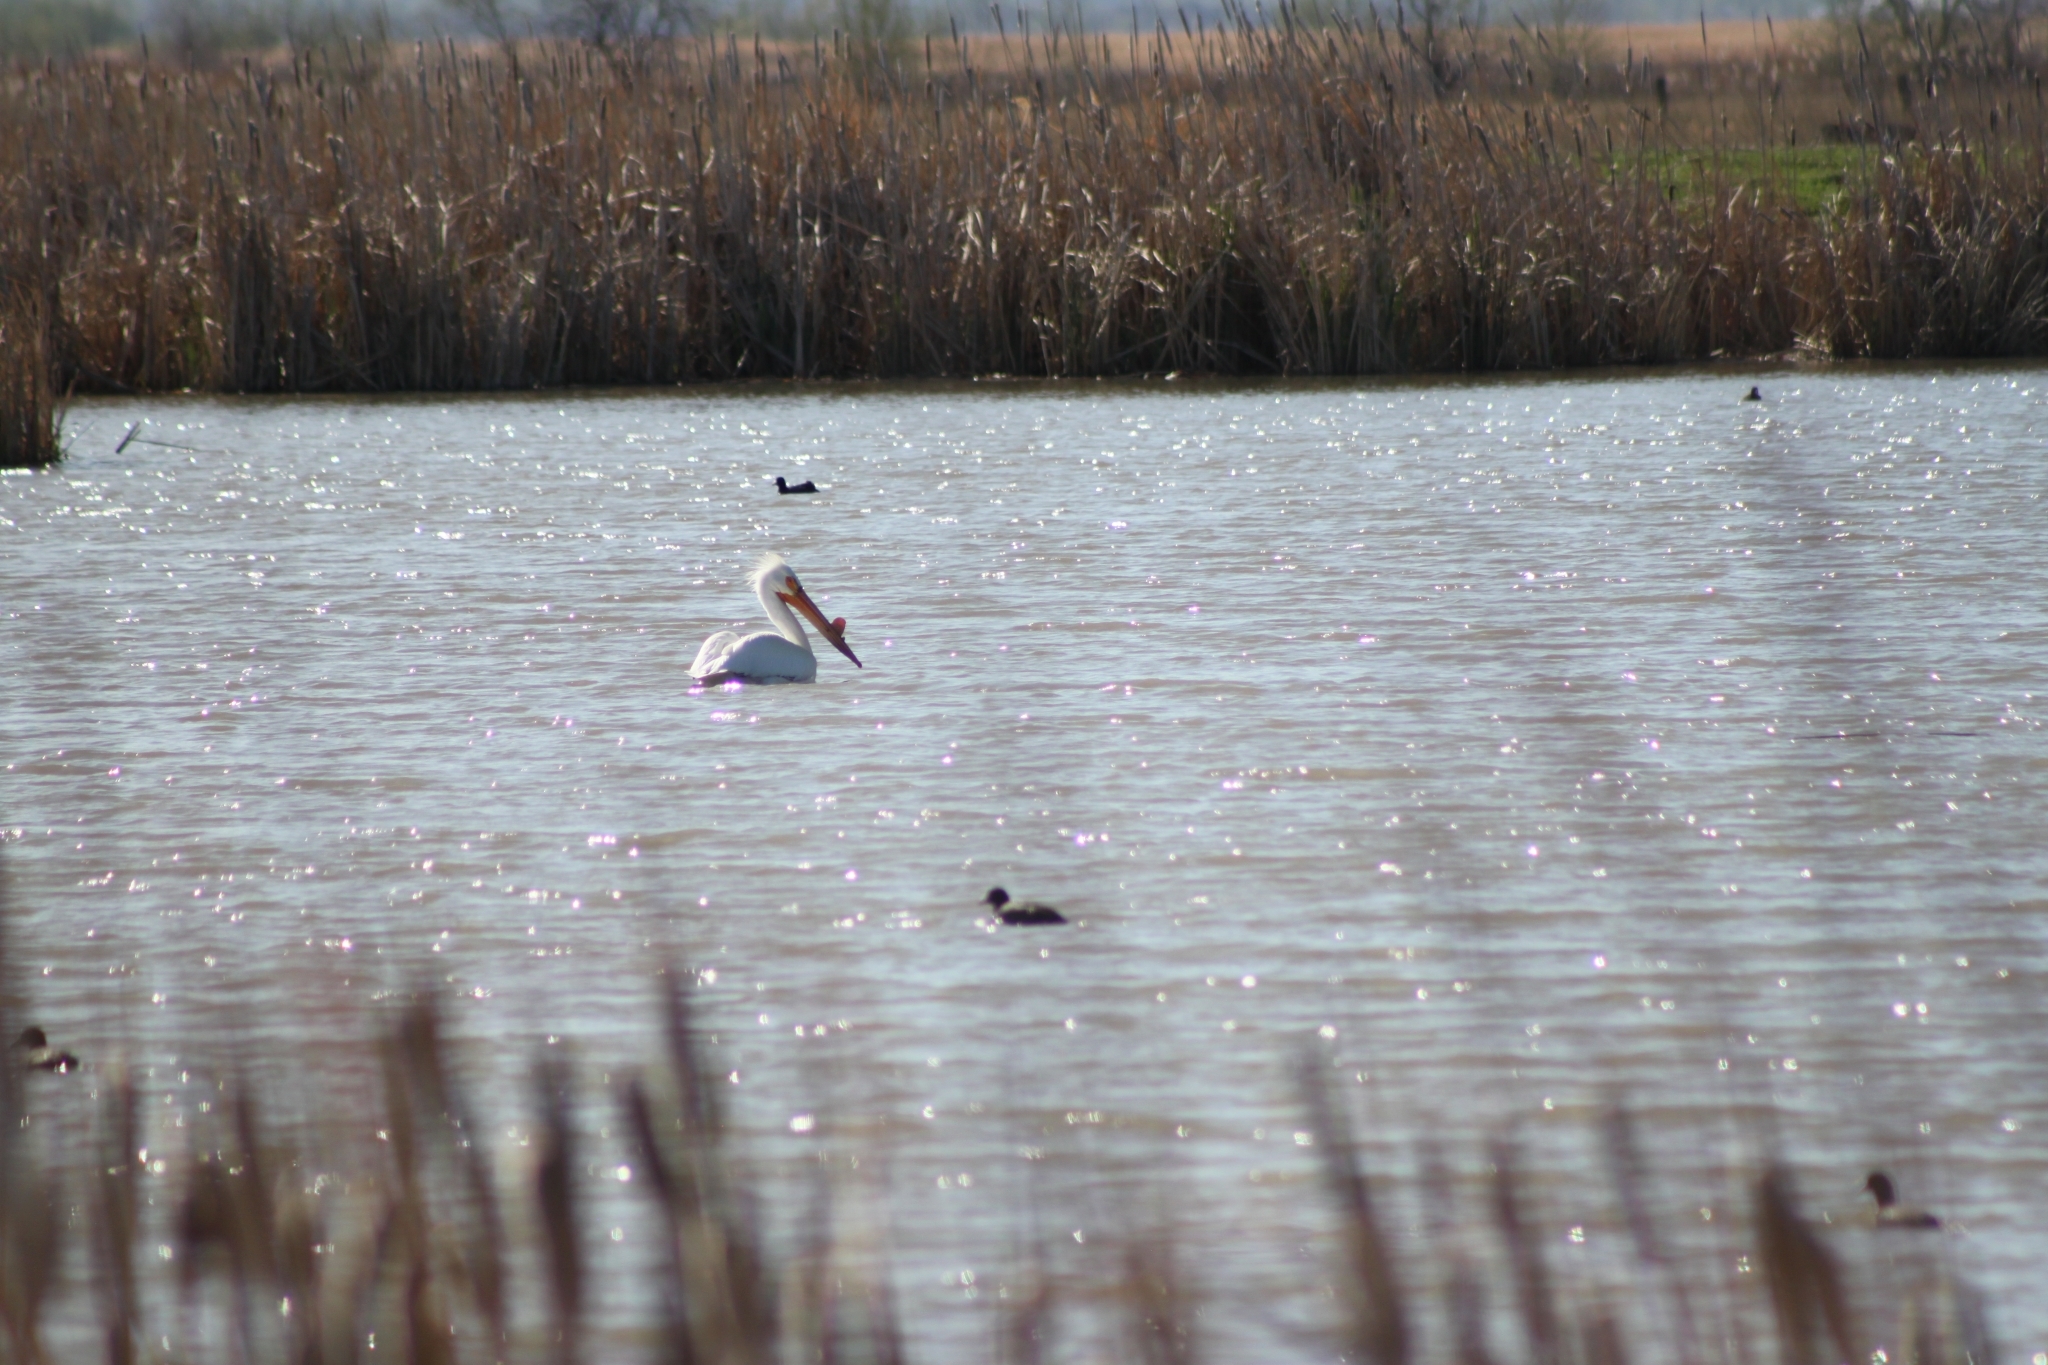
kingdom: Animalia
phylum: Chordata
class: Aves
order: Pelecaniformes
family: Pelecanidae
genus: Pelecanus
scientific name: Pelecanus erythrorhynchos
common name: American white pelican
